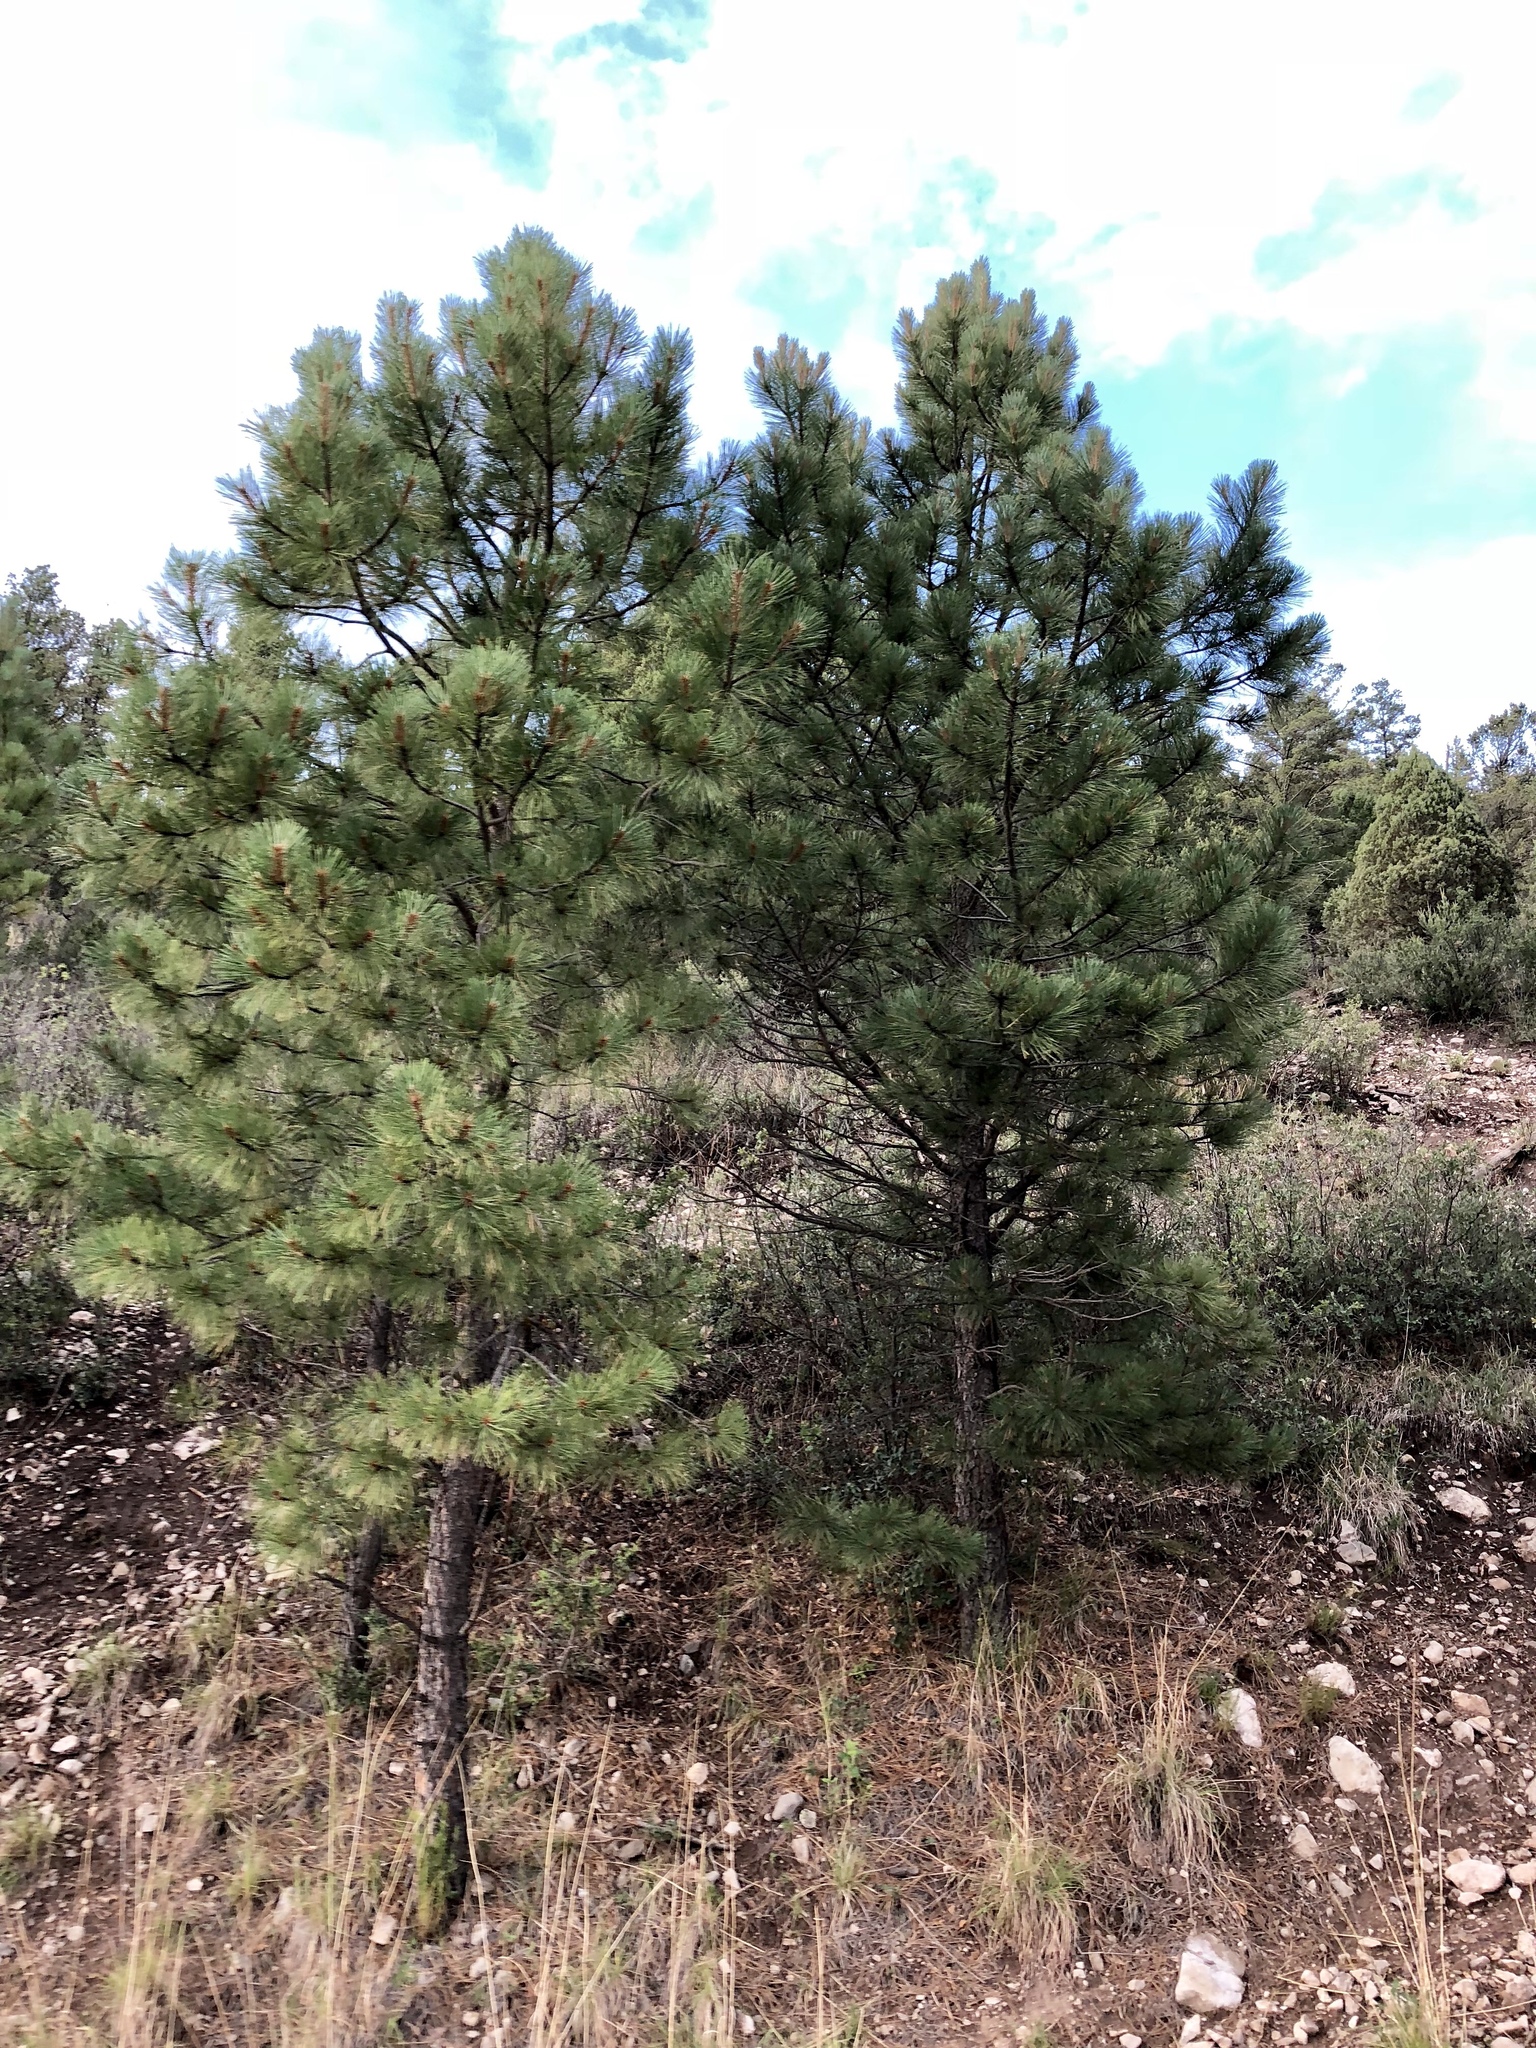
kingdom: Plantae
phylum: Tracheophyta
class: Pinopsida
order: Pinales
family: Pinaceae
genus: Pinus
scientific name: Pinus ponderosa
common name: Western yellow-pine
